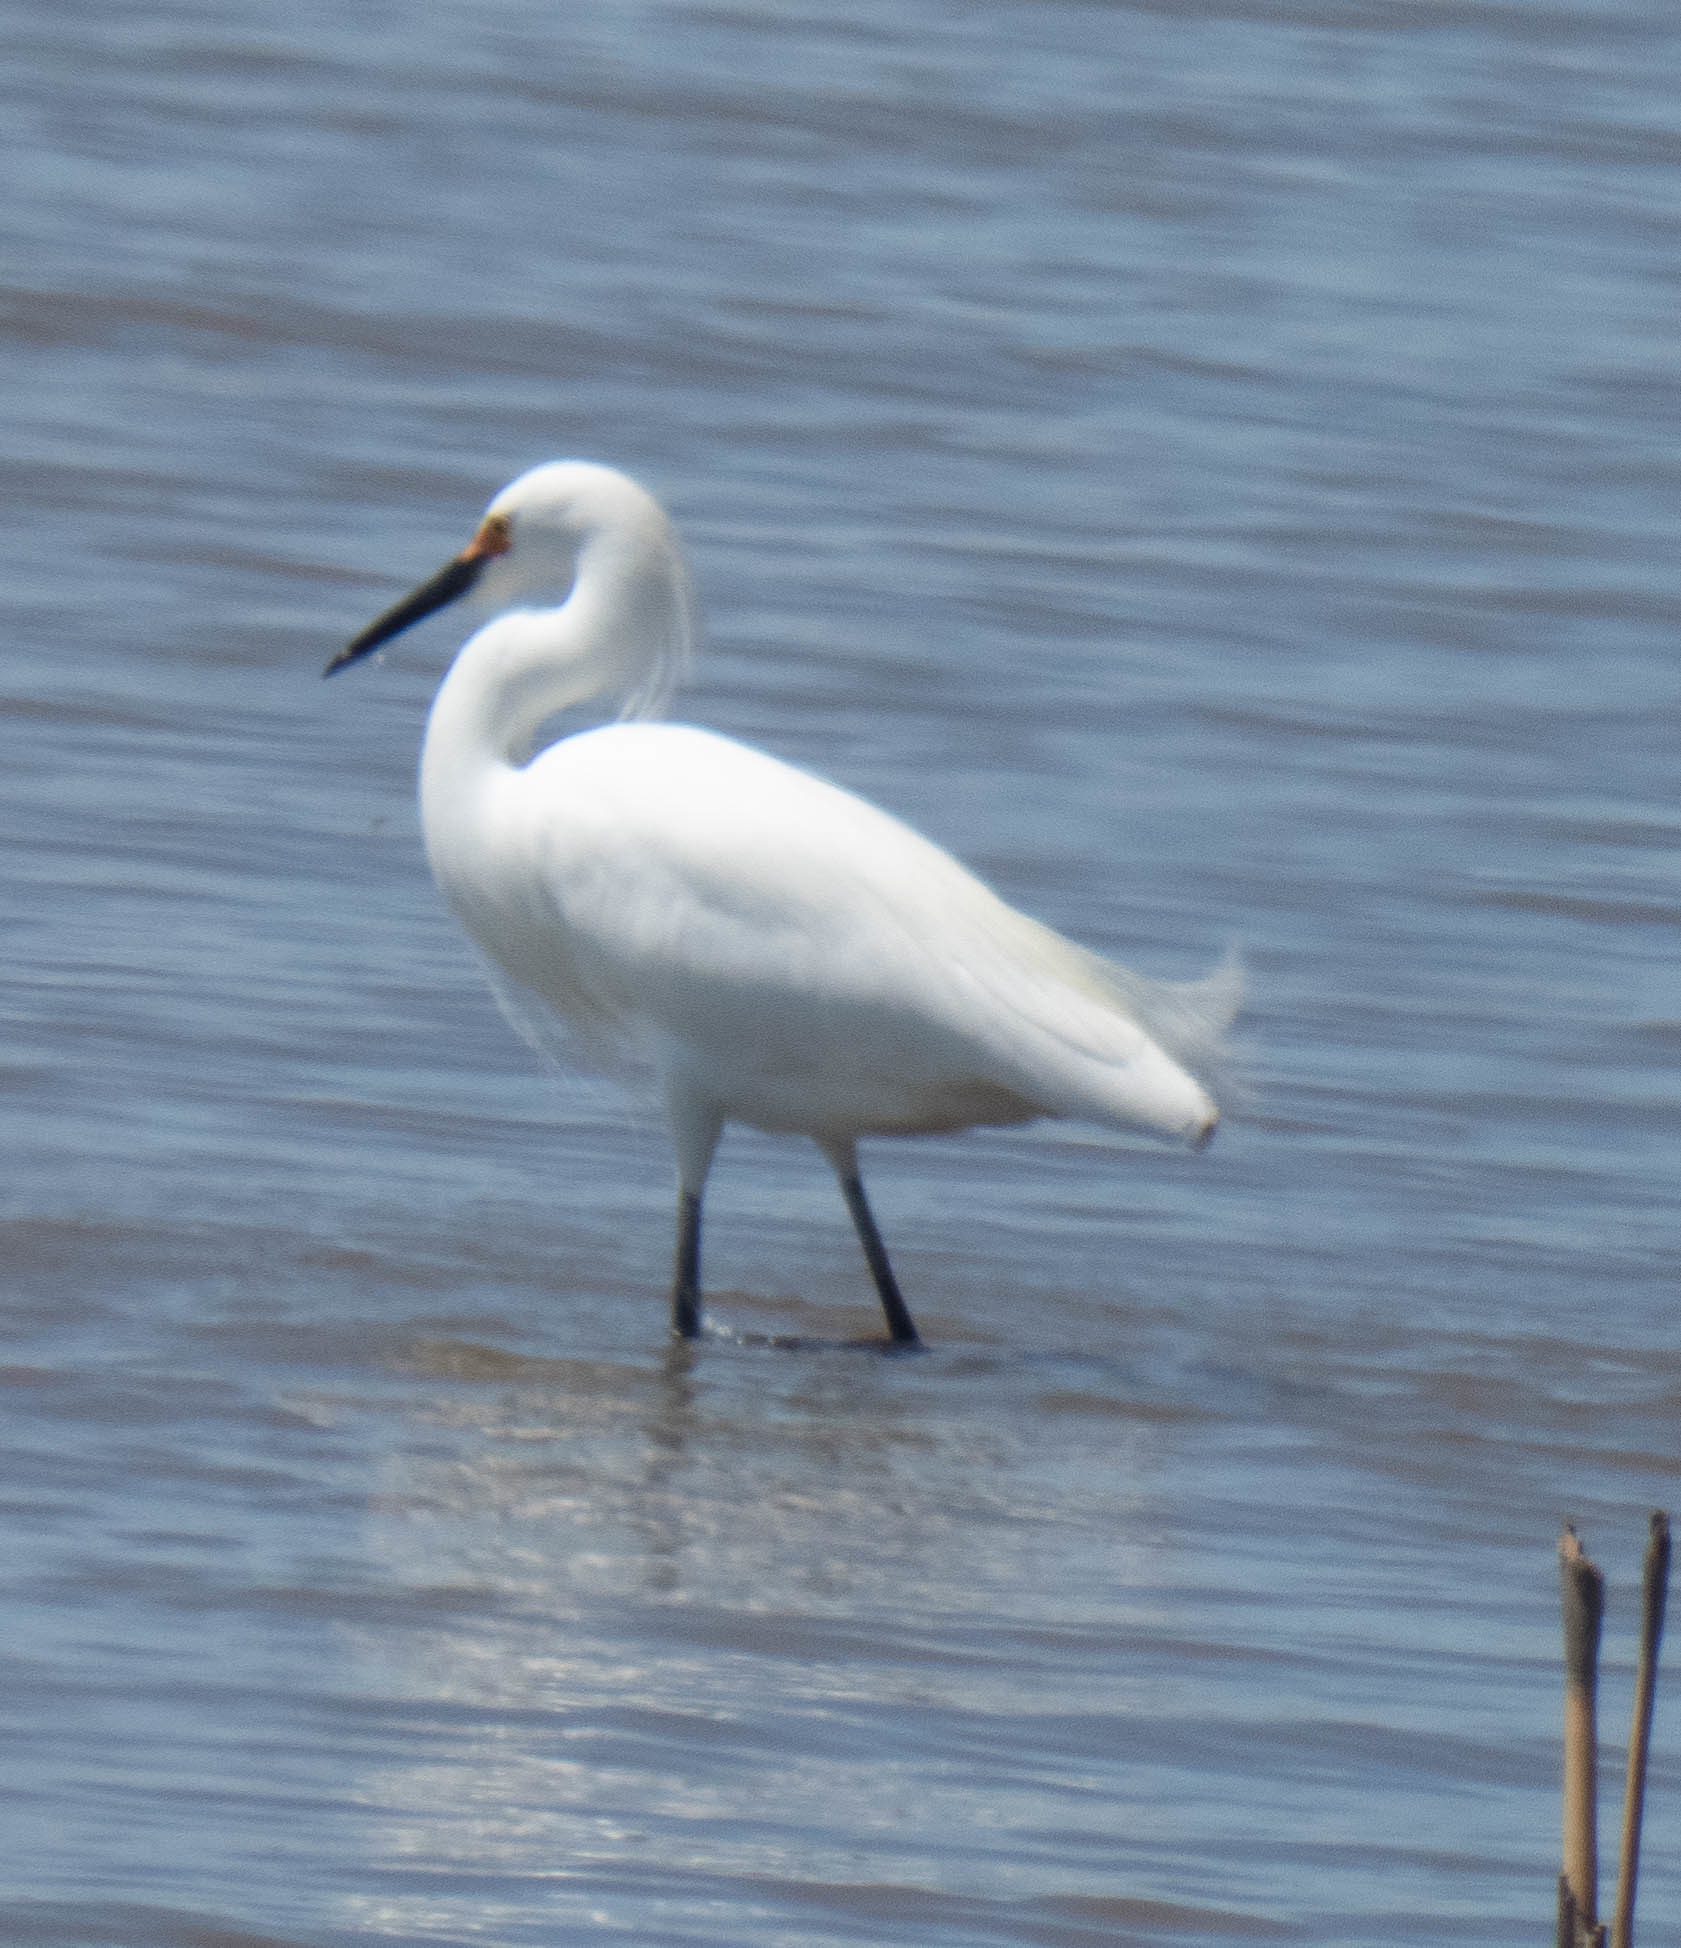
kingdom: Animalia
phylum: Chordata
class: Aves
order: Pelecaniformes
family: Ardeidae
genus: Egretta
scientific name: Egretta thula
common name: Snowy egret
